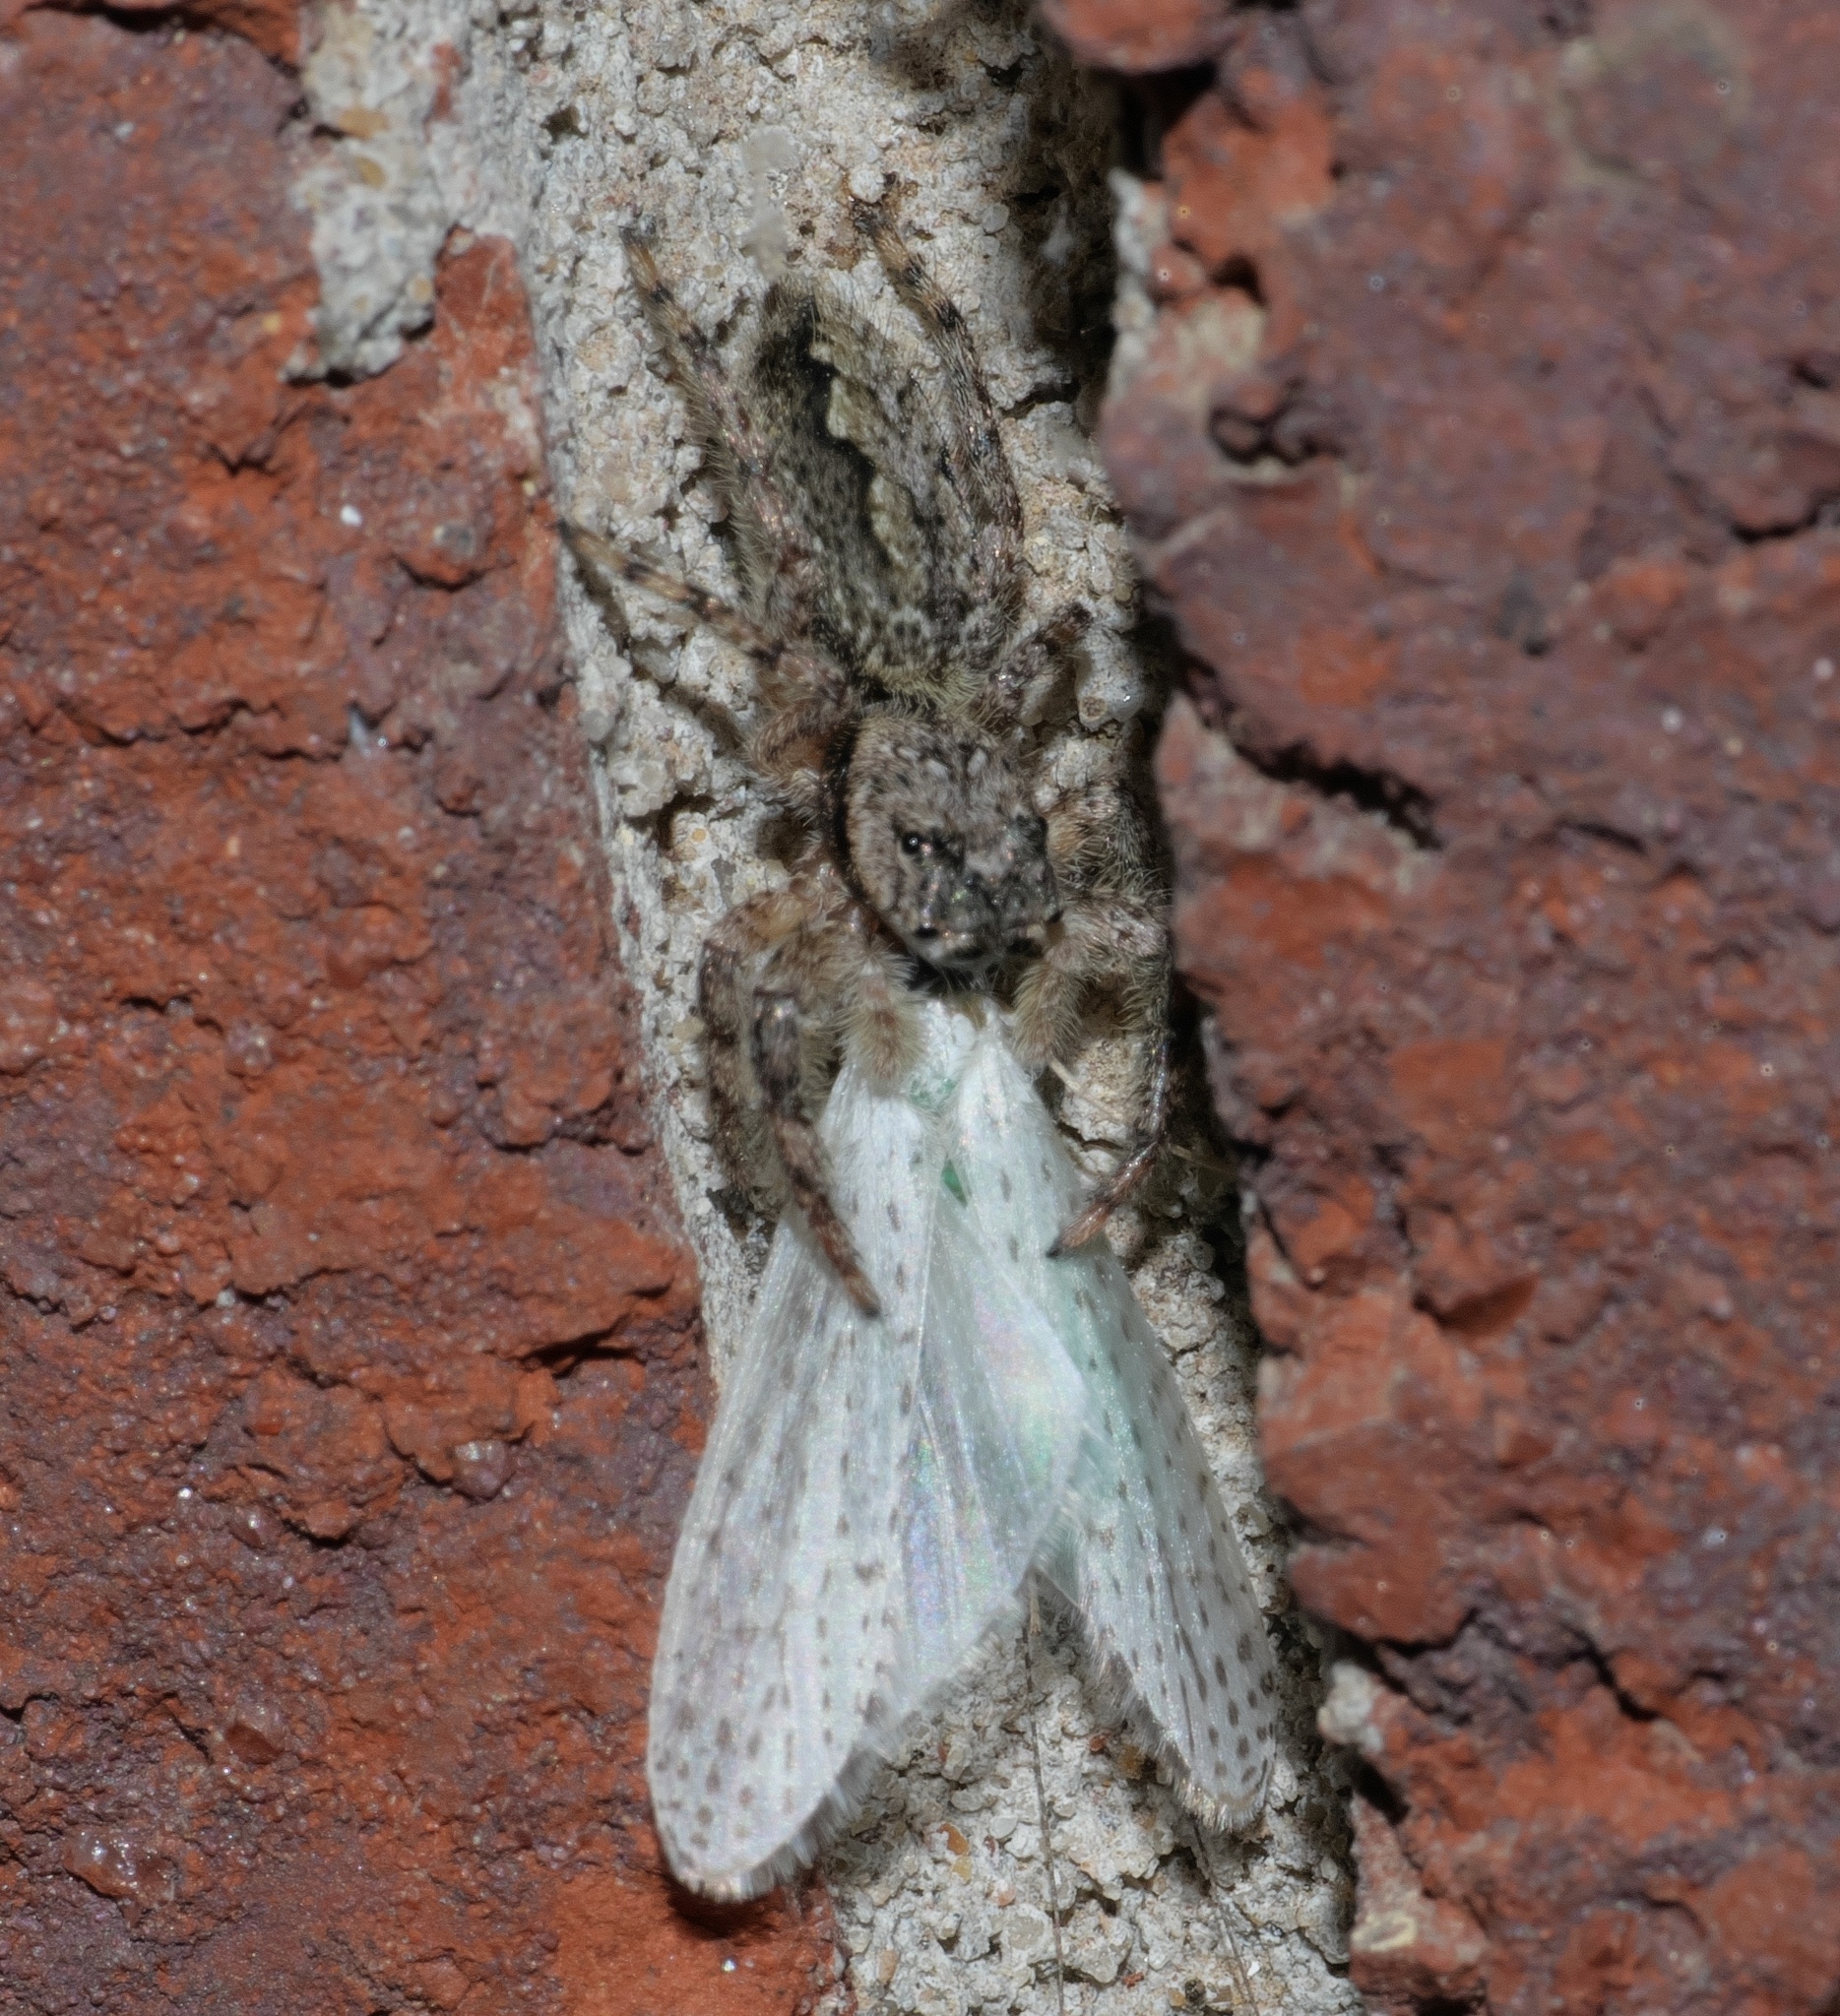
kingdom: Animalia
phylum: Arthropoda
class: Arachnida
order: Araneae
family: Salticidae
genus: Platycryptus
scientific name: Platycryptus undatus
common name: Tan jumping spider
